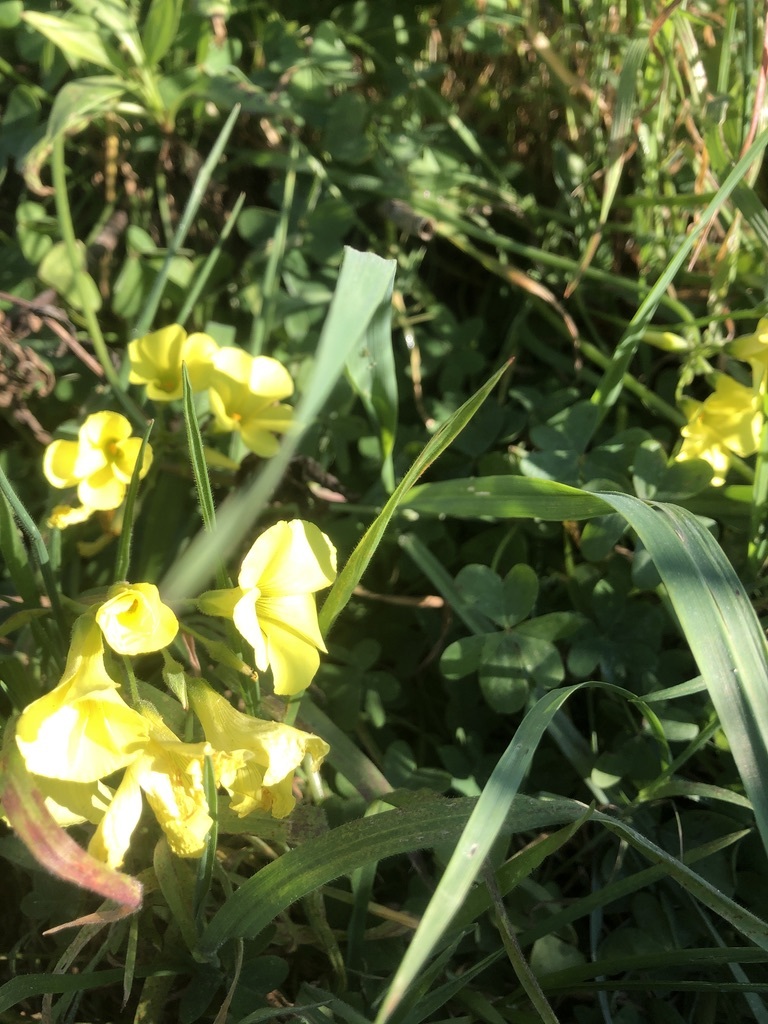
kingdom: Plantae
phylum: Tracheophyta
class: Magnoliopsida
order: Oxalidales
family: Oxalidaceae
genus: Oxalis
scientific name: Oxalis pes-caprae
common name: Bermuda-buttercup
